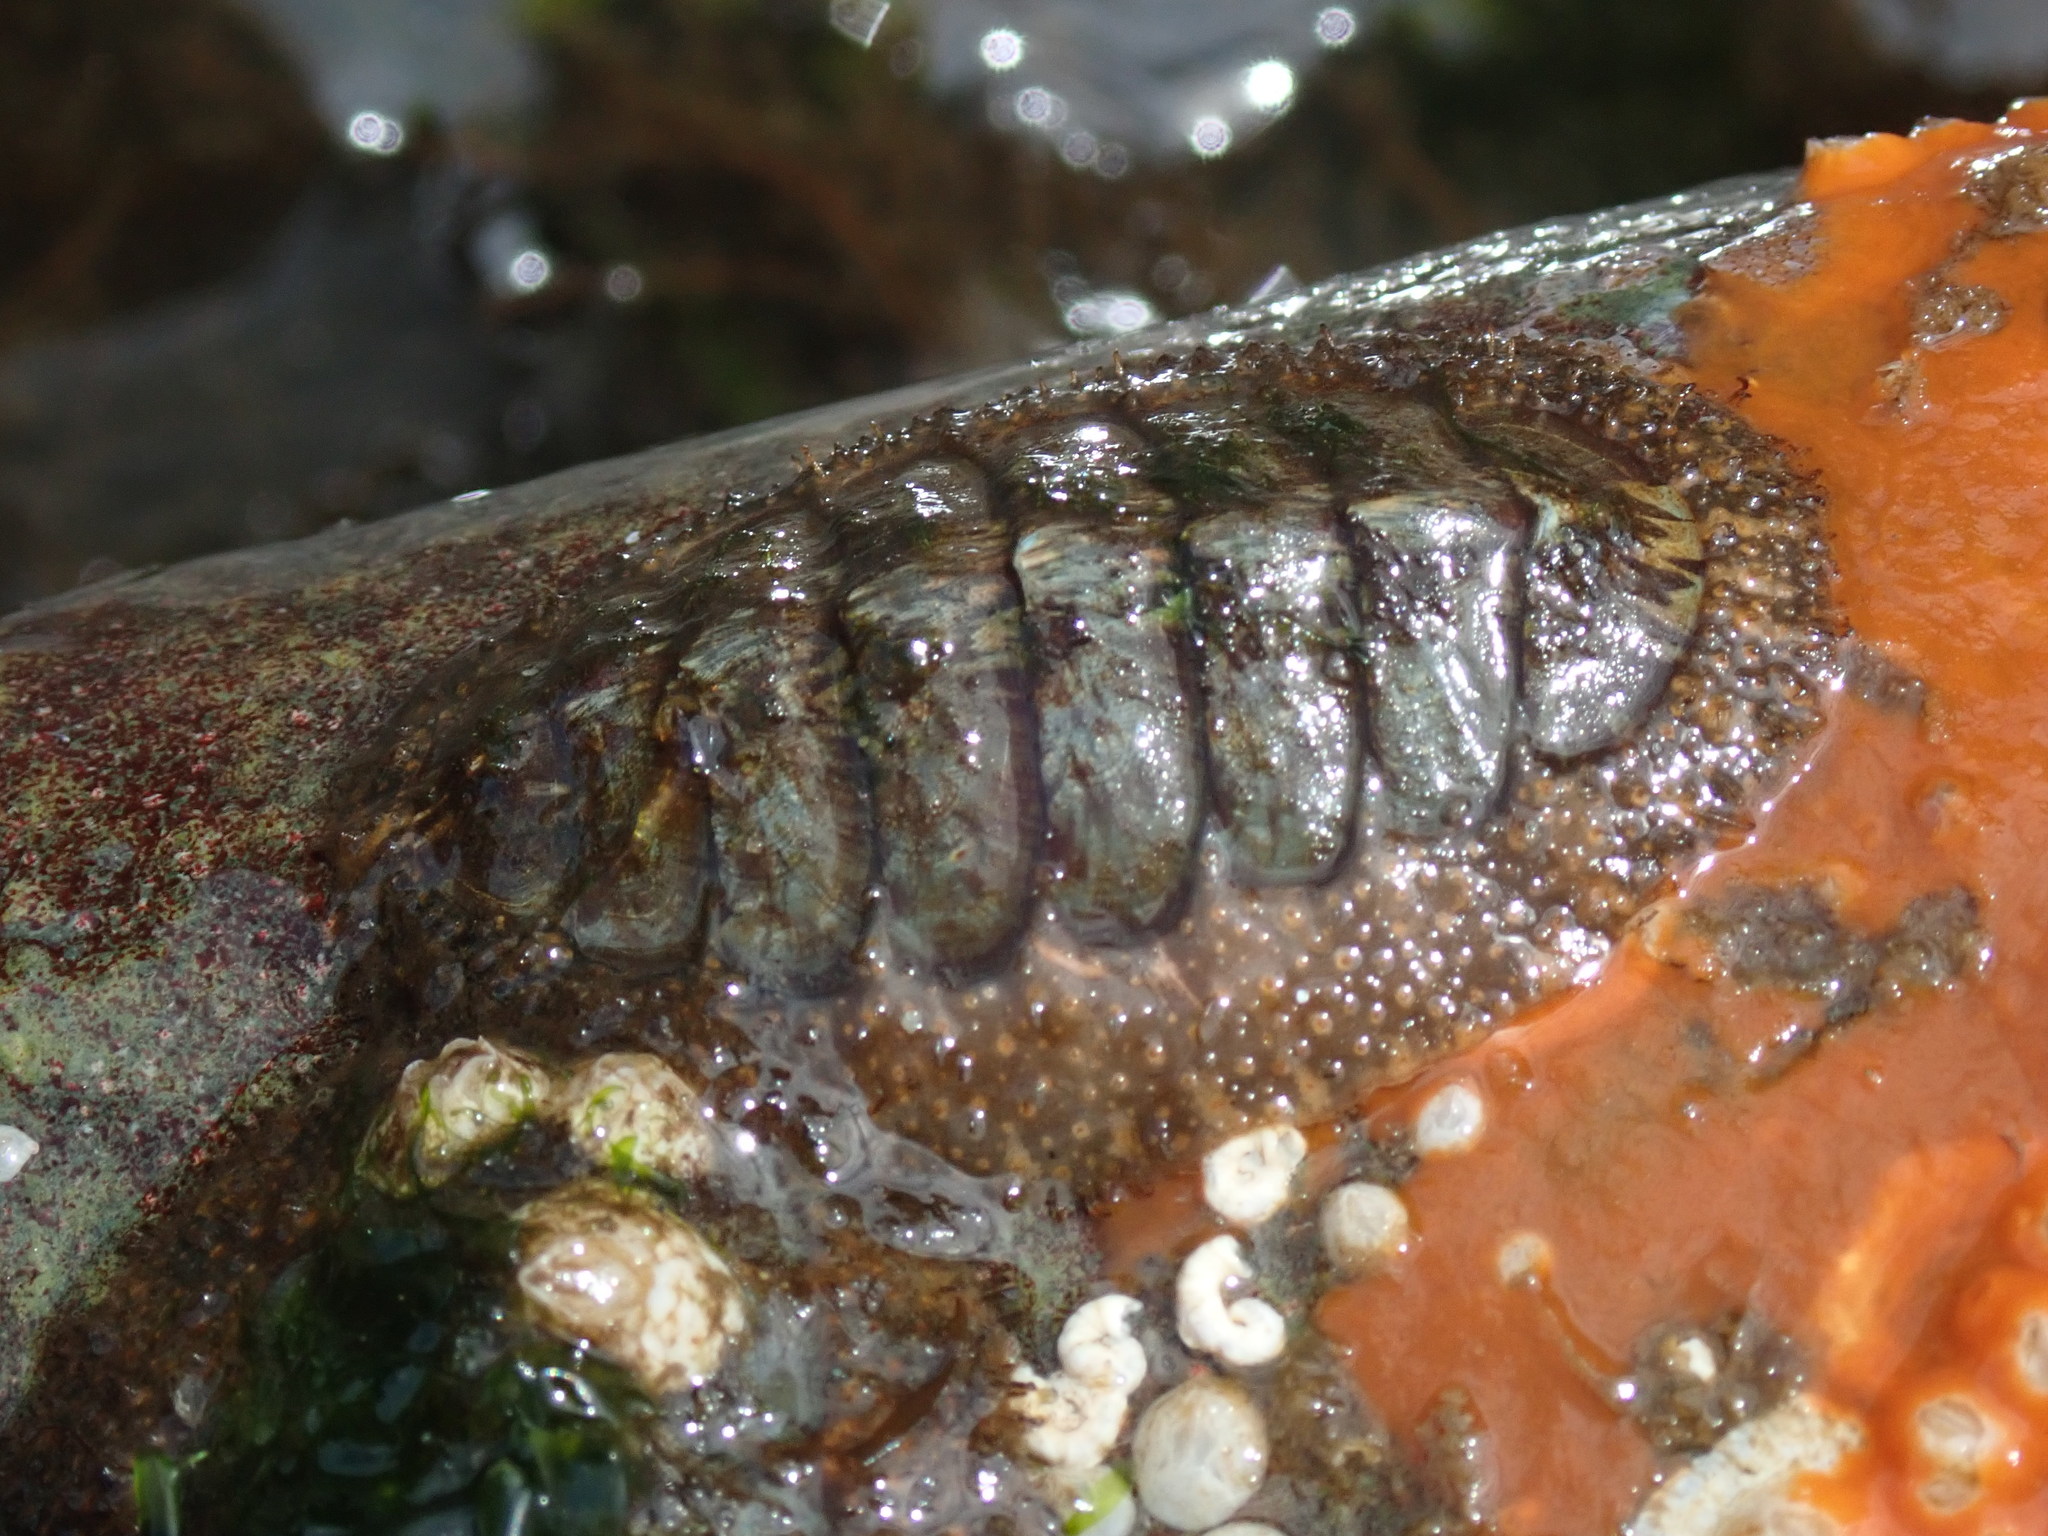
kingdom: Animalia
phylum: Mollusca
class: Polyplacophora
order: Chitonida
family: Mopaliidae
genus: Mopalia
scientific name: Mopalia lignosa
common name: Woody chiton
